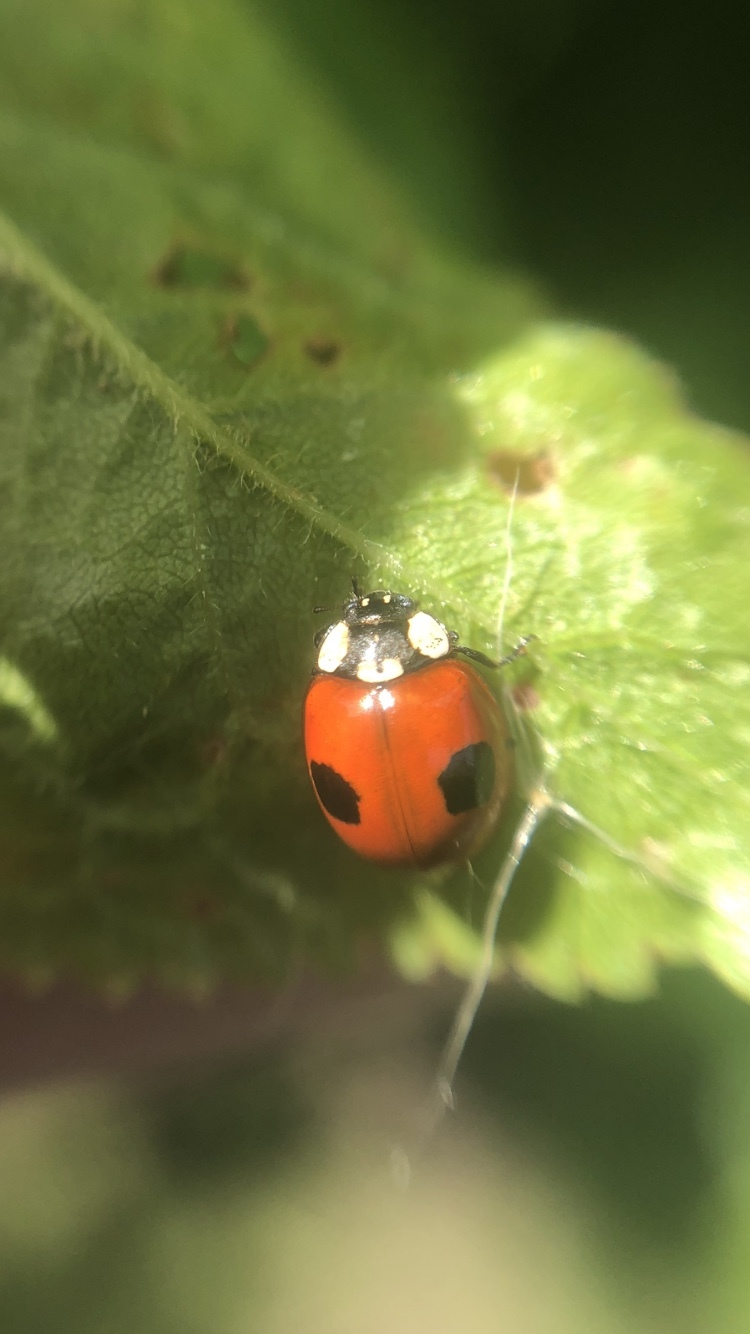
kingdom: Animalia
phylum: Arthropoda
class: Insecta
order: Coleoptera
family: Coccinellidae
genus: Adalia
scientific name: Adalia bipunctata
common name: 2-spot ladybird
